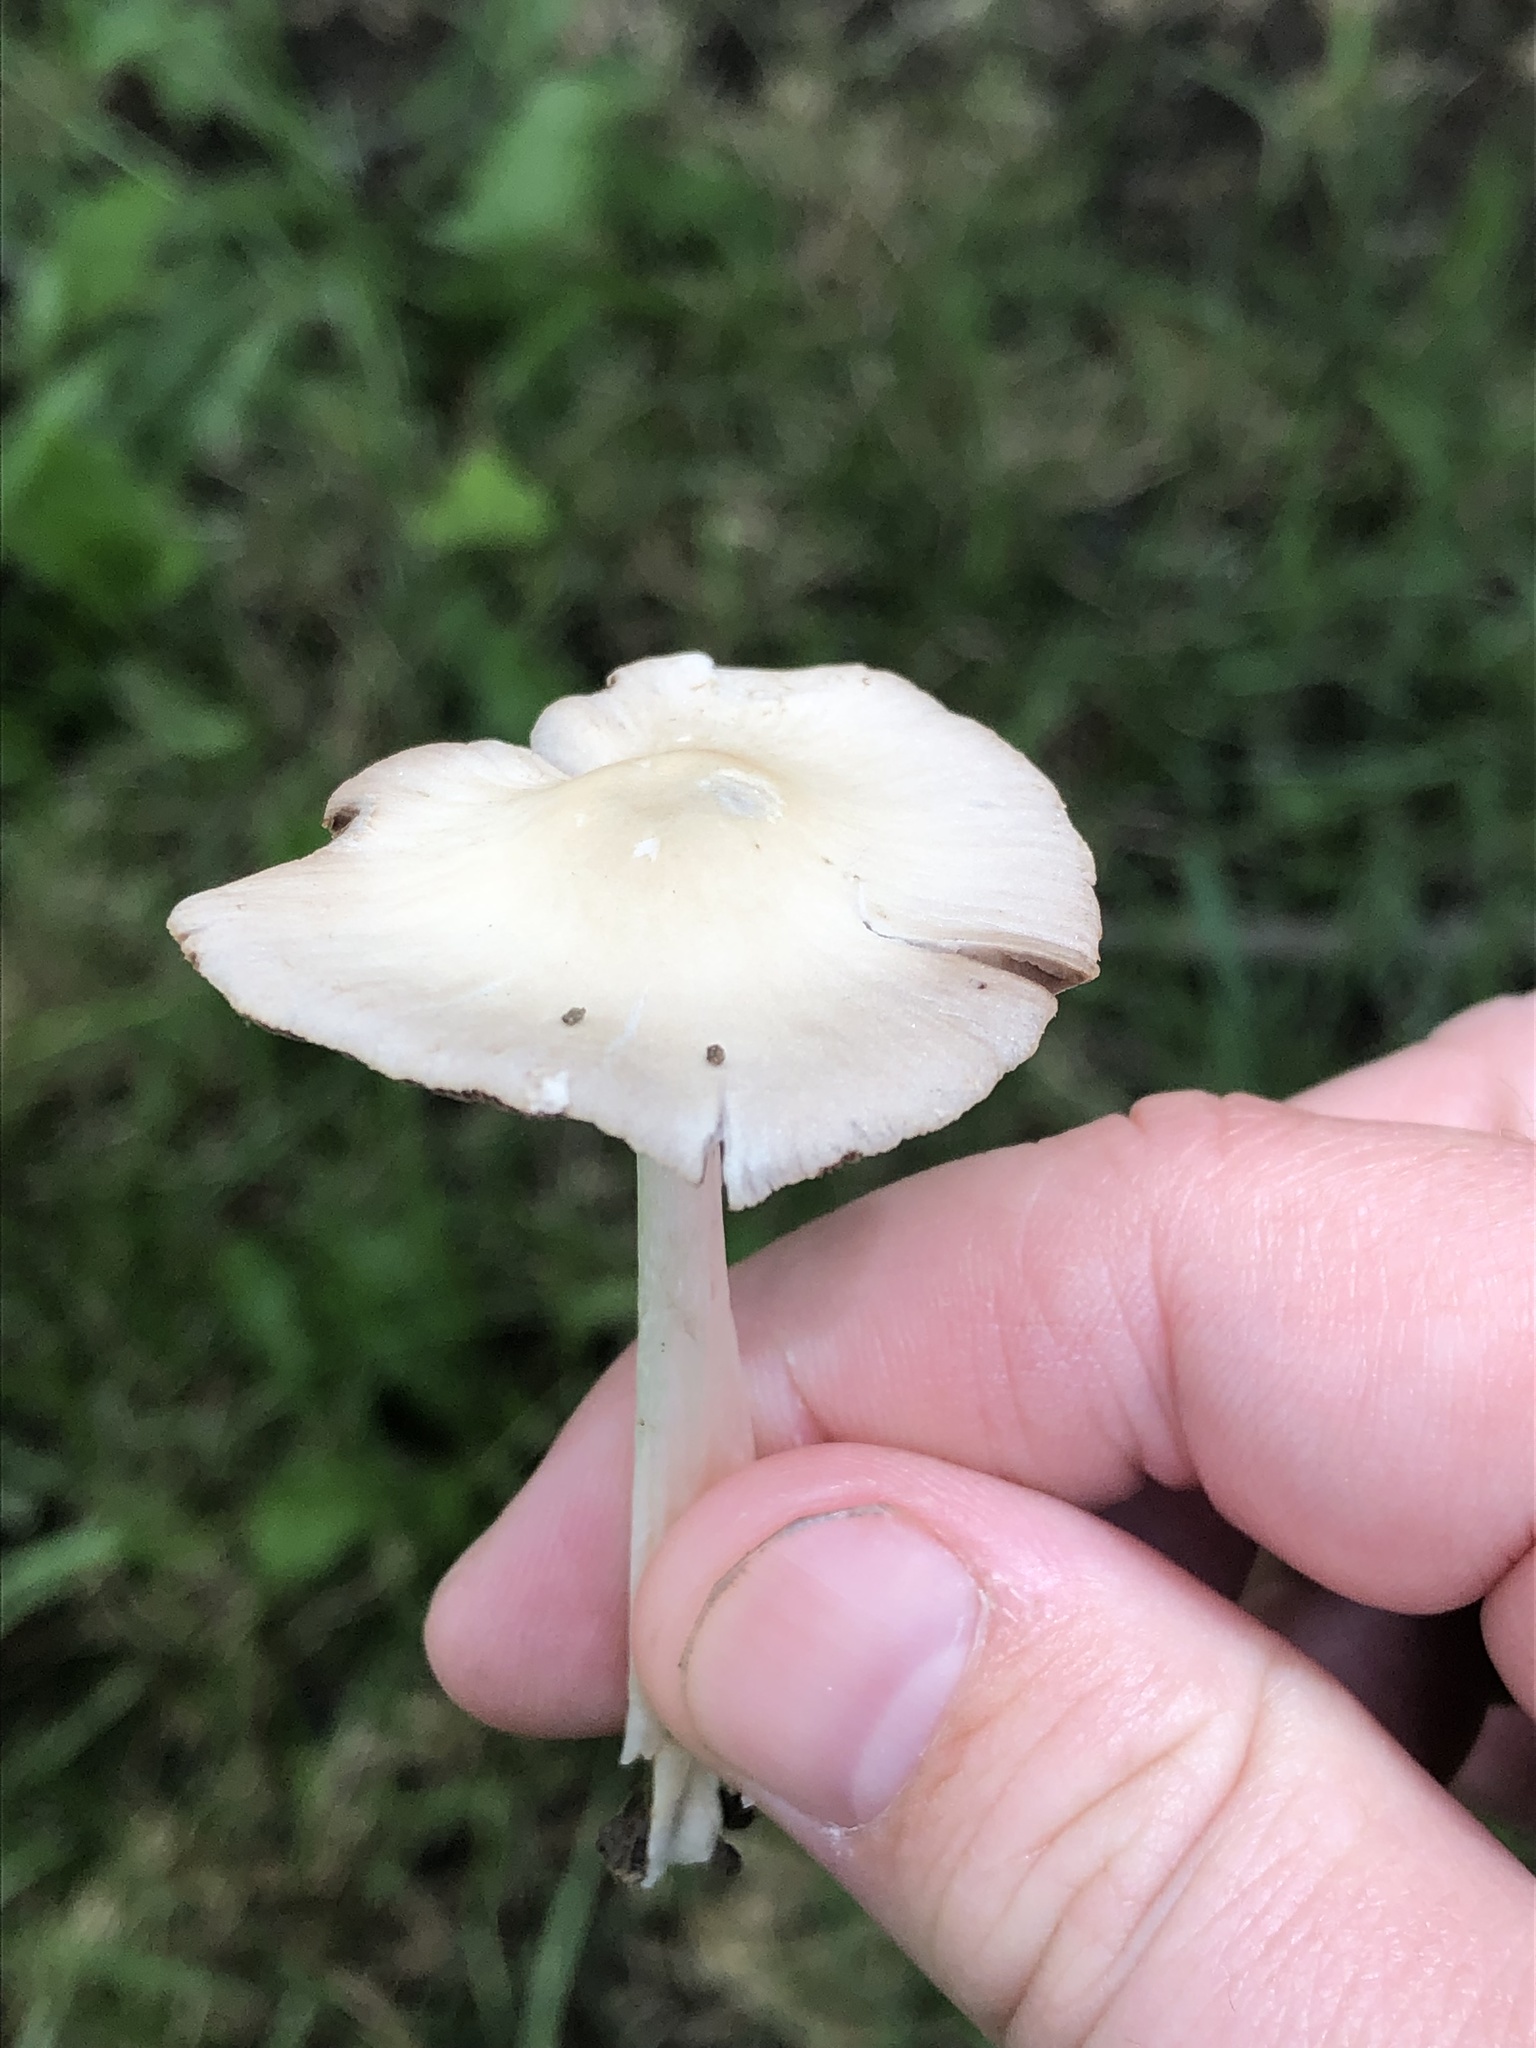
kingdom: Fungi
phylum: Basidiomycota
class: Agaricomycetes
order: Agaricales
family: Psathyrellaceae
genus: Candolleomyces
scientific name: Candolleomyces candolleanus
